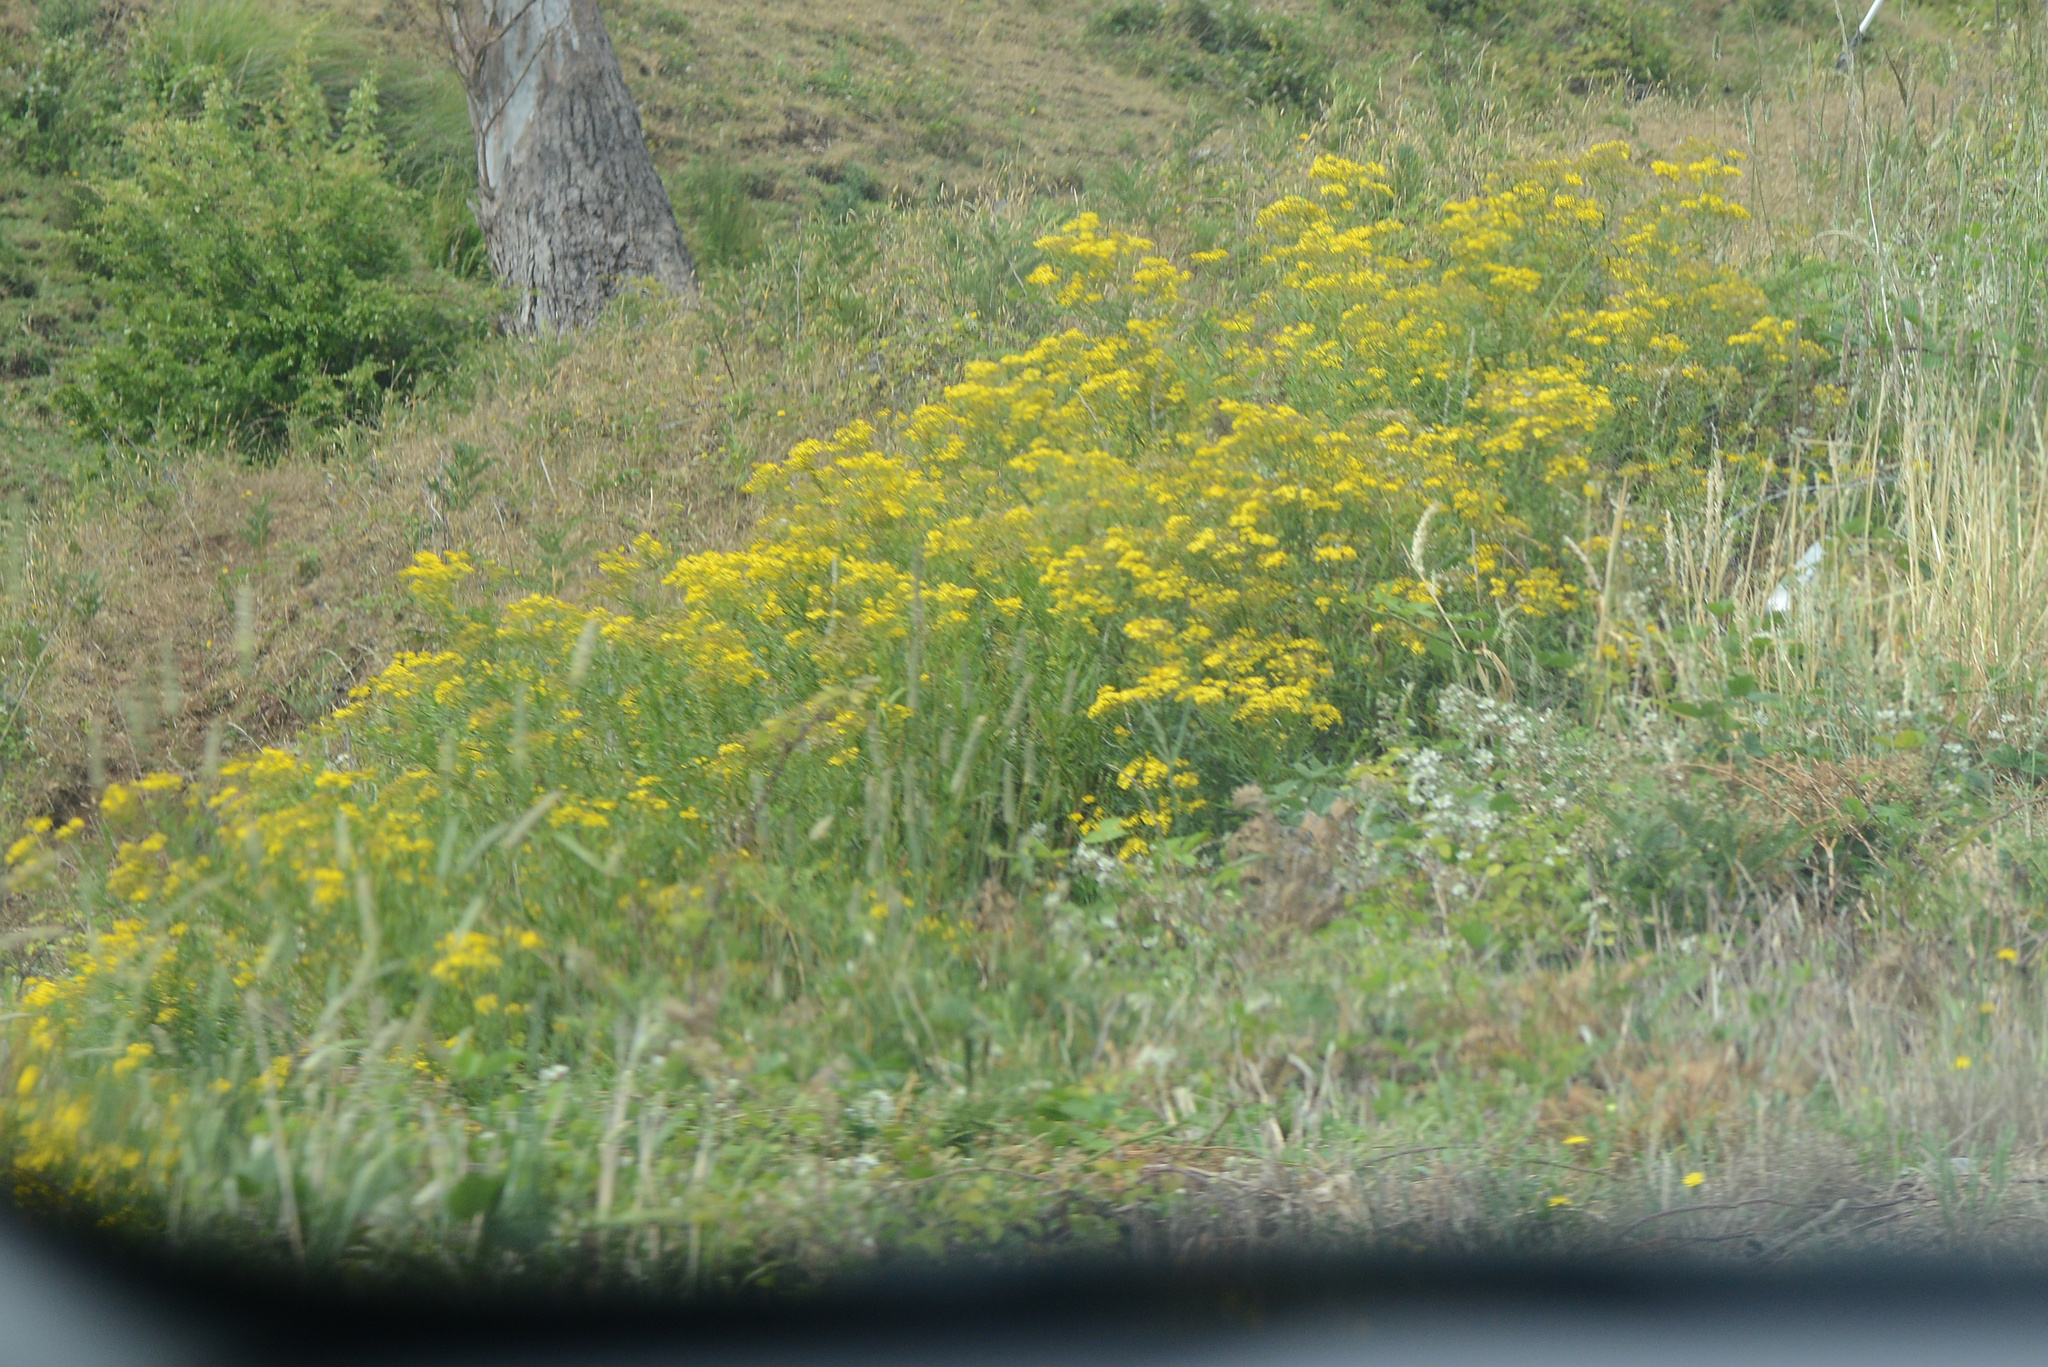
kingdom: Plantae
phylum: Tracheophyta
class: Magnoliopsida
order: Asterales
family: Asteraceae
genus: Senecio
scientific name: Senecio linearifolius
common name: Fireweed groundsel
